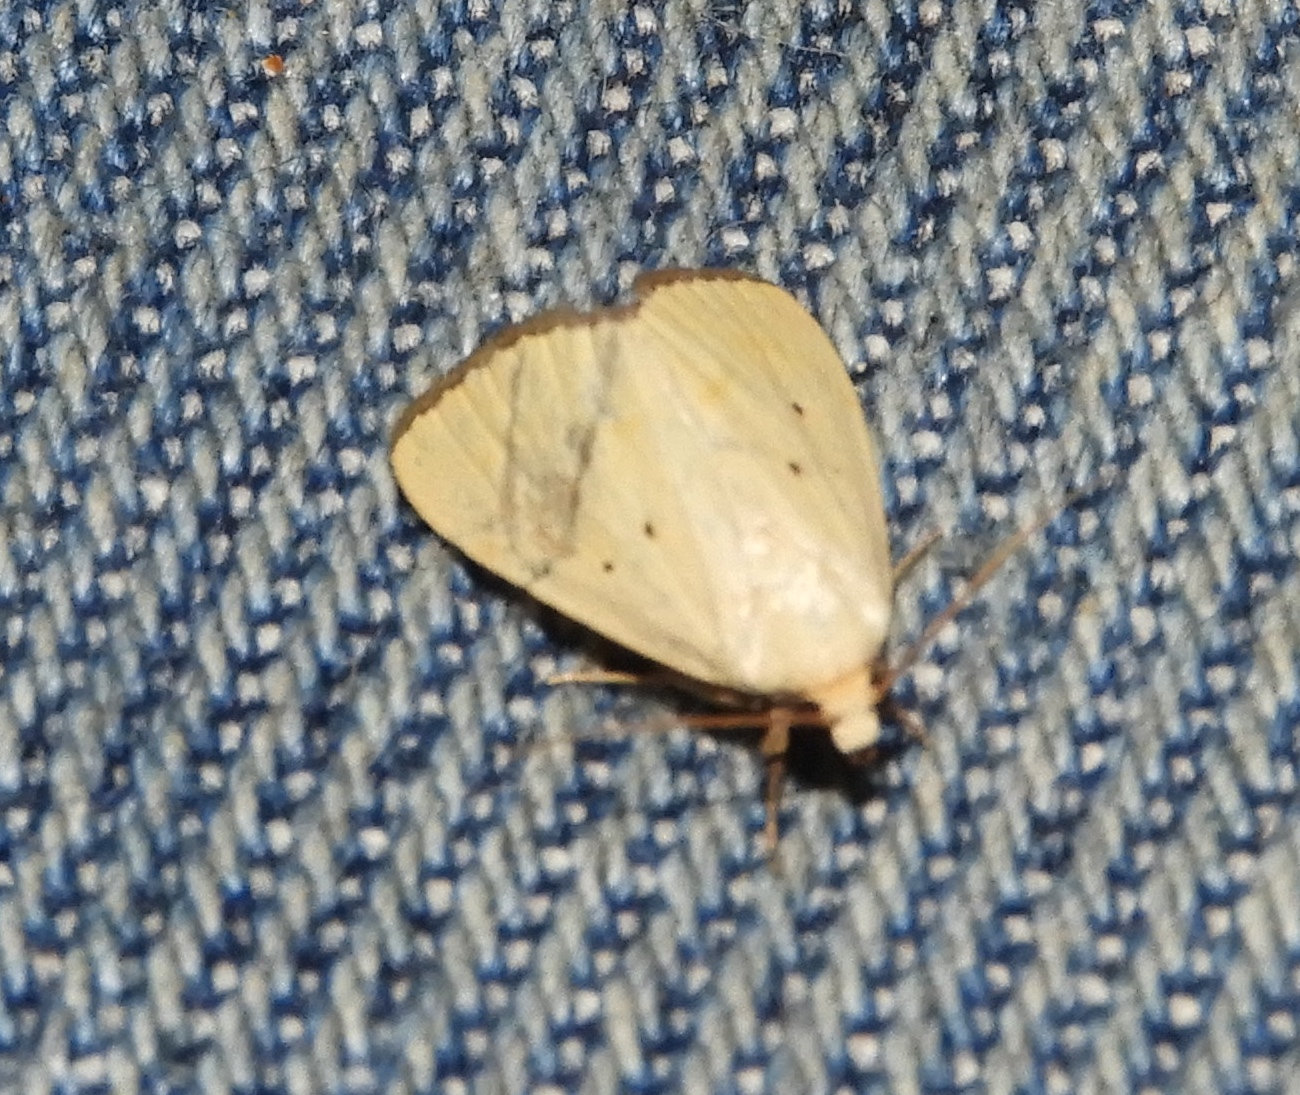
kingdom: Animalia
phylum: Arthropoda
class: Insecta
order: Lepidoptera
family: Noctuidae
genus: Marimatha
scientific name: Marimatha nigrofimbria
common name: Black-bordered lemon moth
